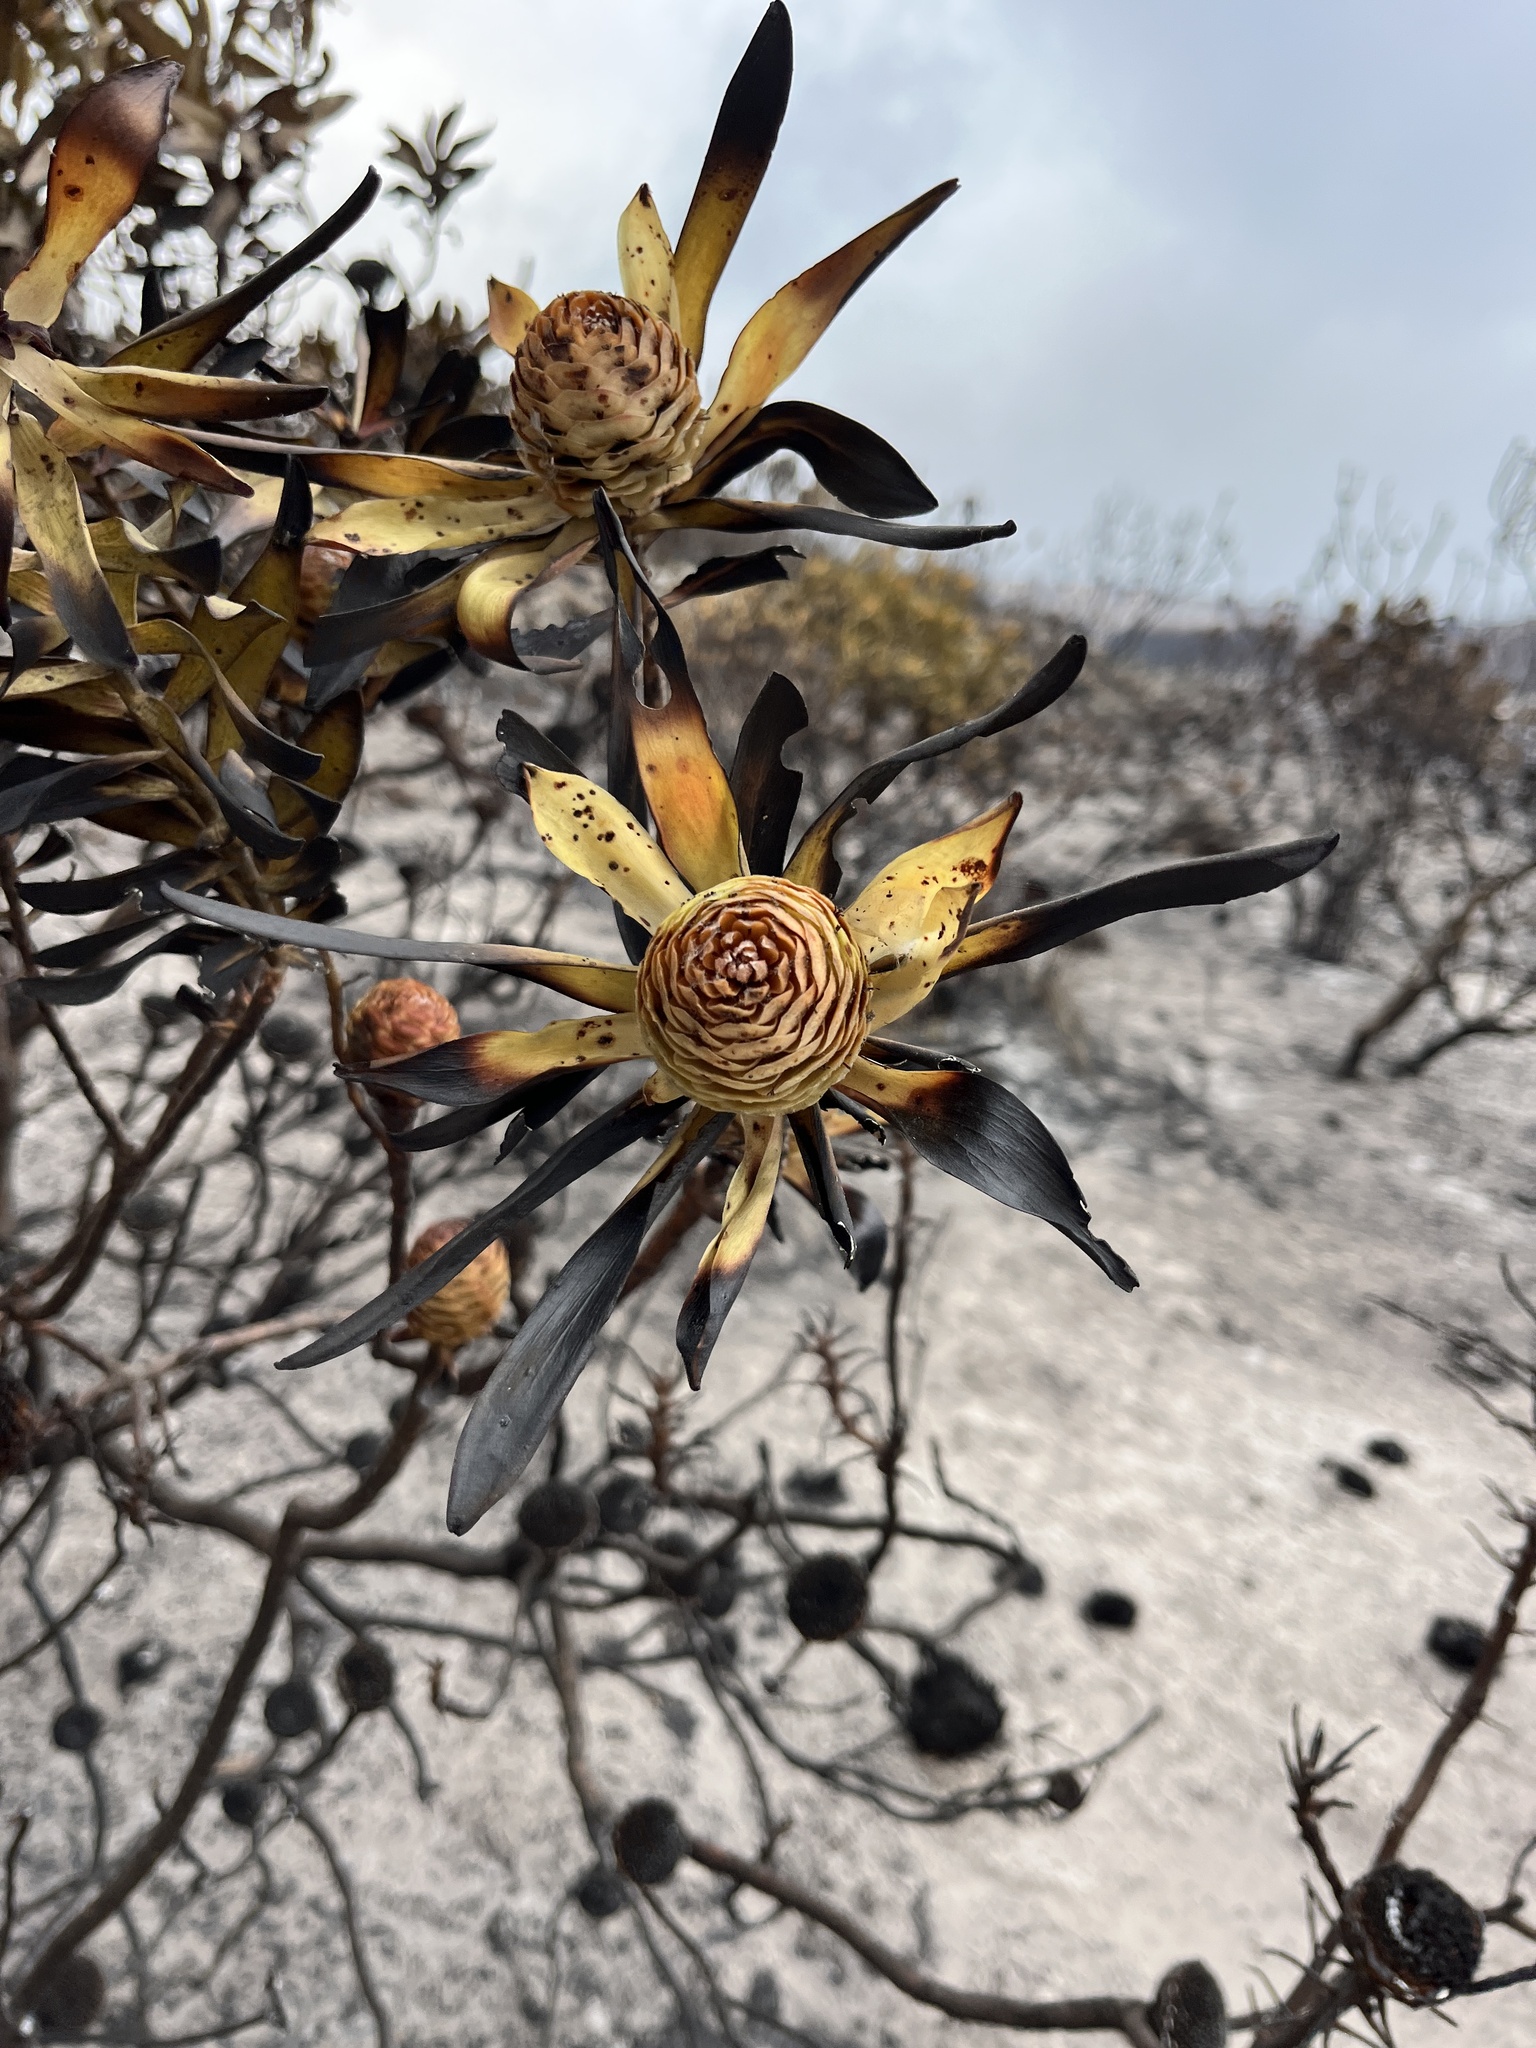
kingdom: Plantae
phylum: Tracheophyta
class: Magnoliopsida
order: Proteales
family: Proteaceae
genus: Leucadendron
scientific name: Leucadendron laureolum
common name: Golden sunshinebush
